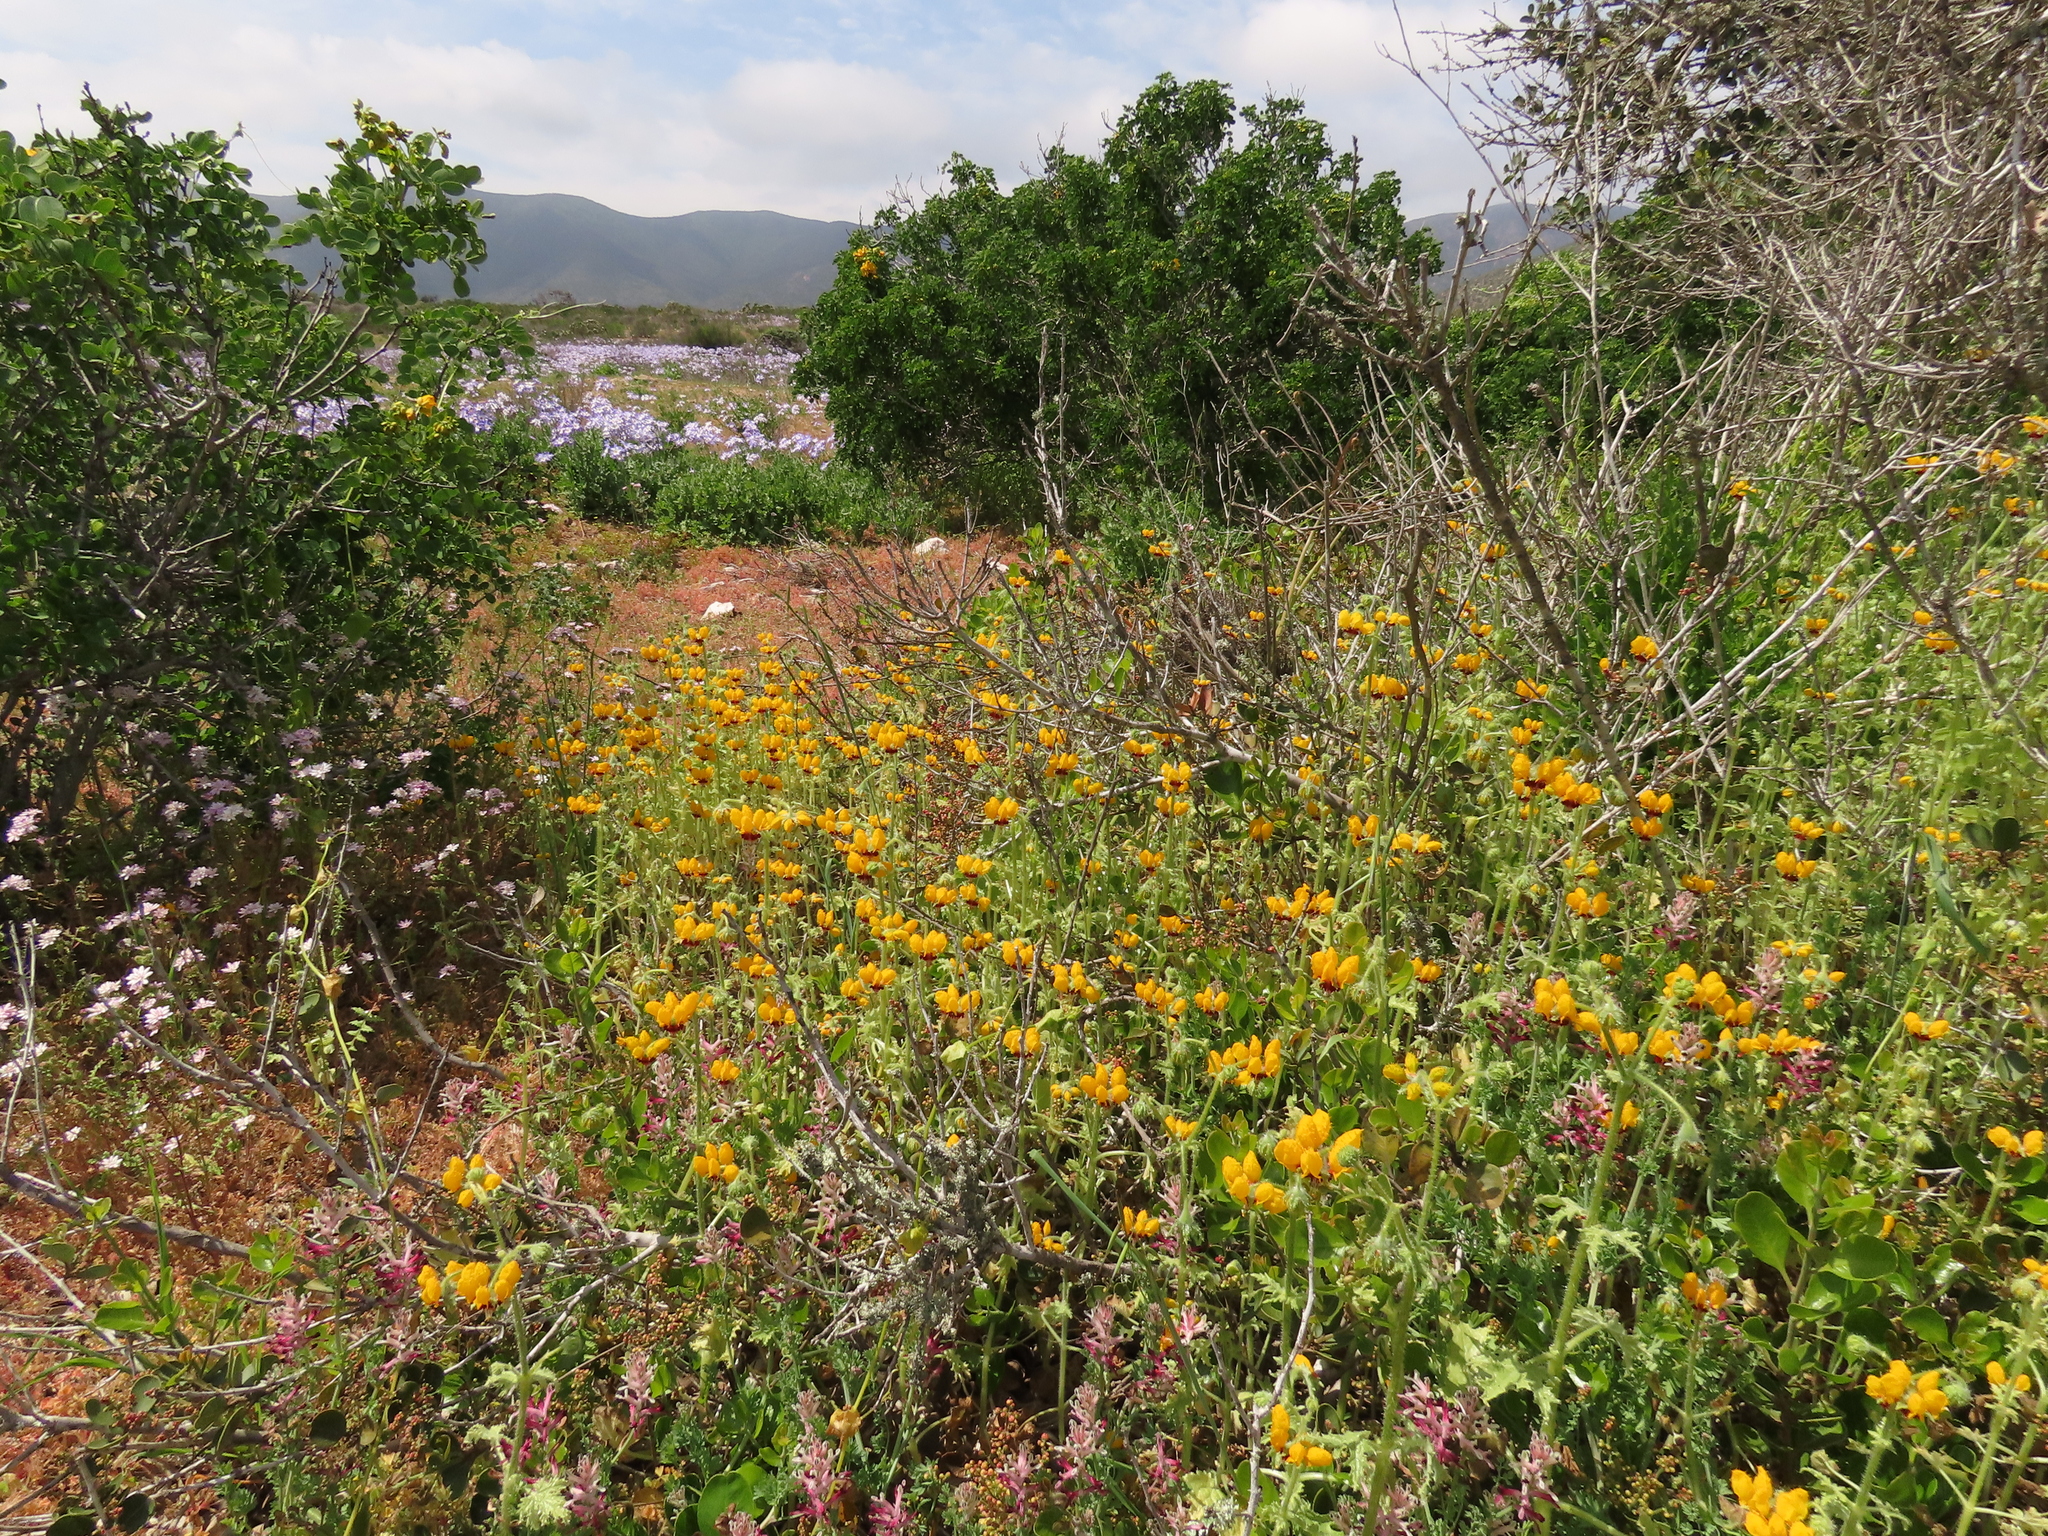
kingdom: Plantae
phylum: Tracheophyta
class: Magnoliopsida
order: Cornales
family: Loasaceae
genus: Loasa
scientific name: Loasa tricolor
